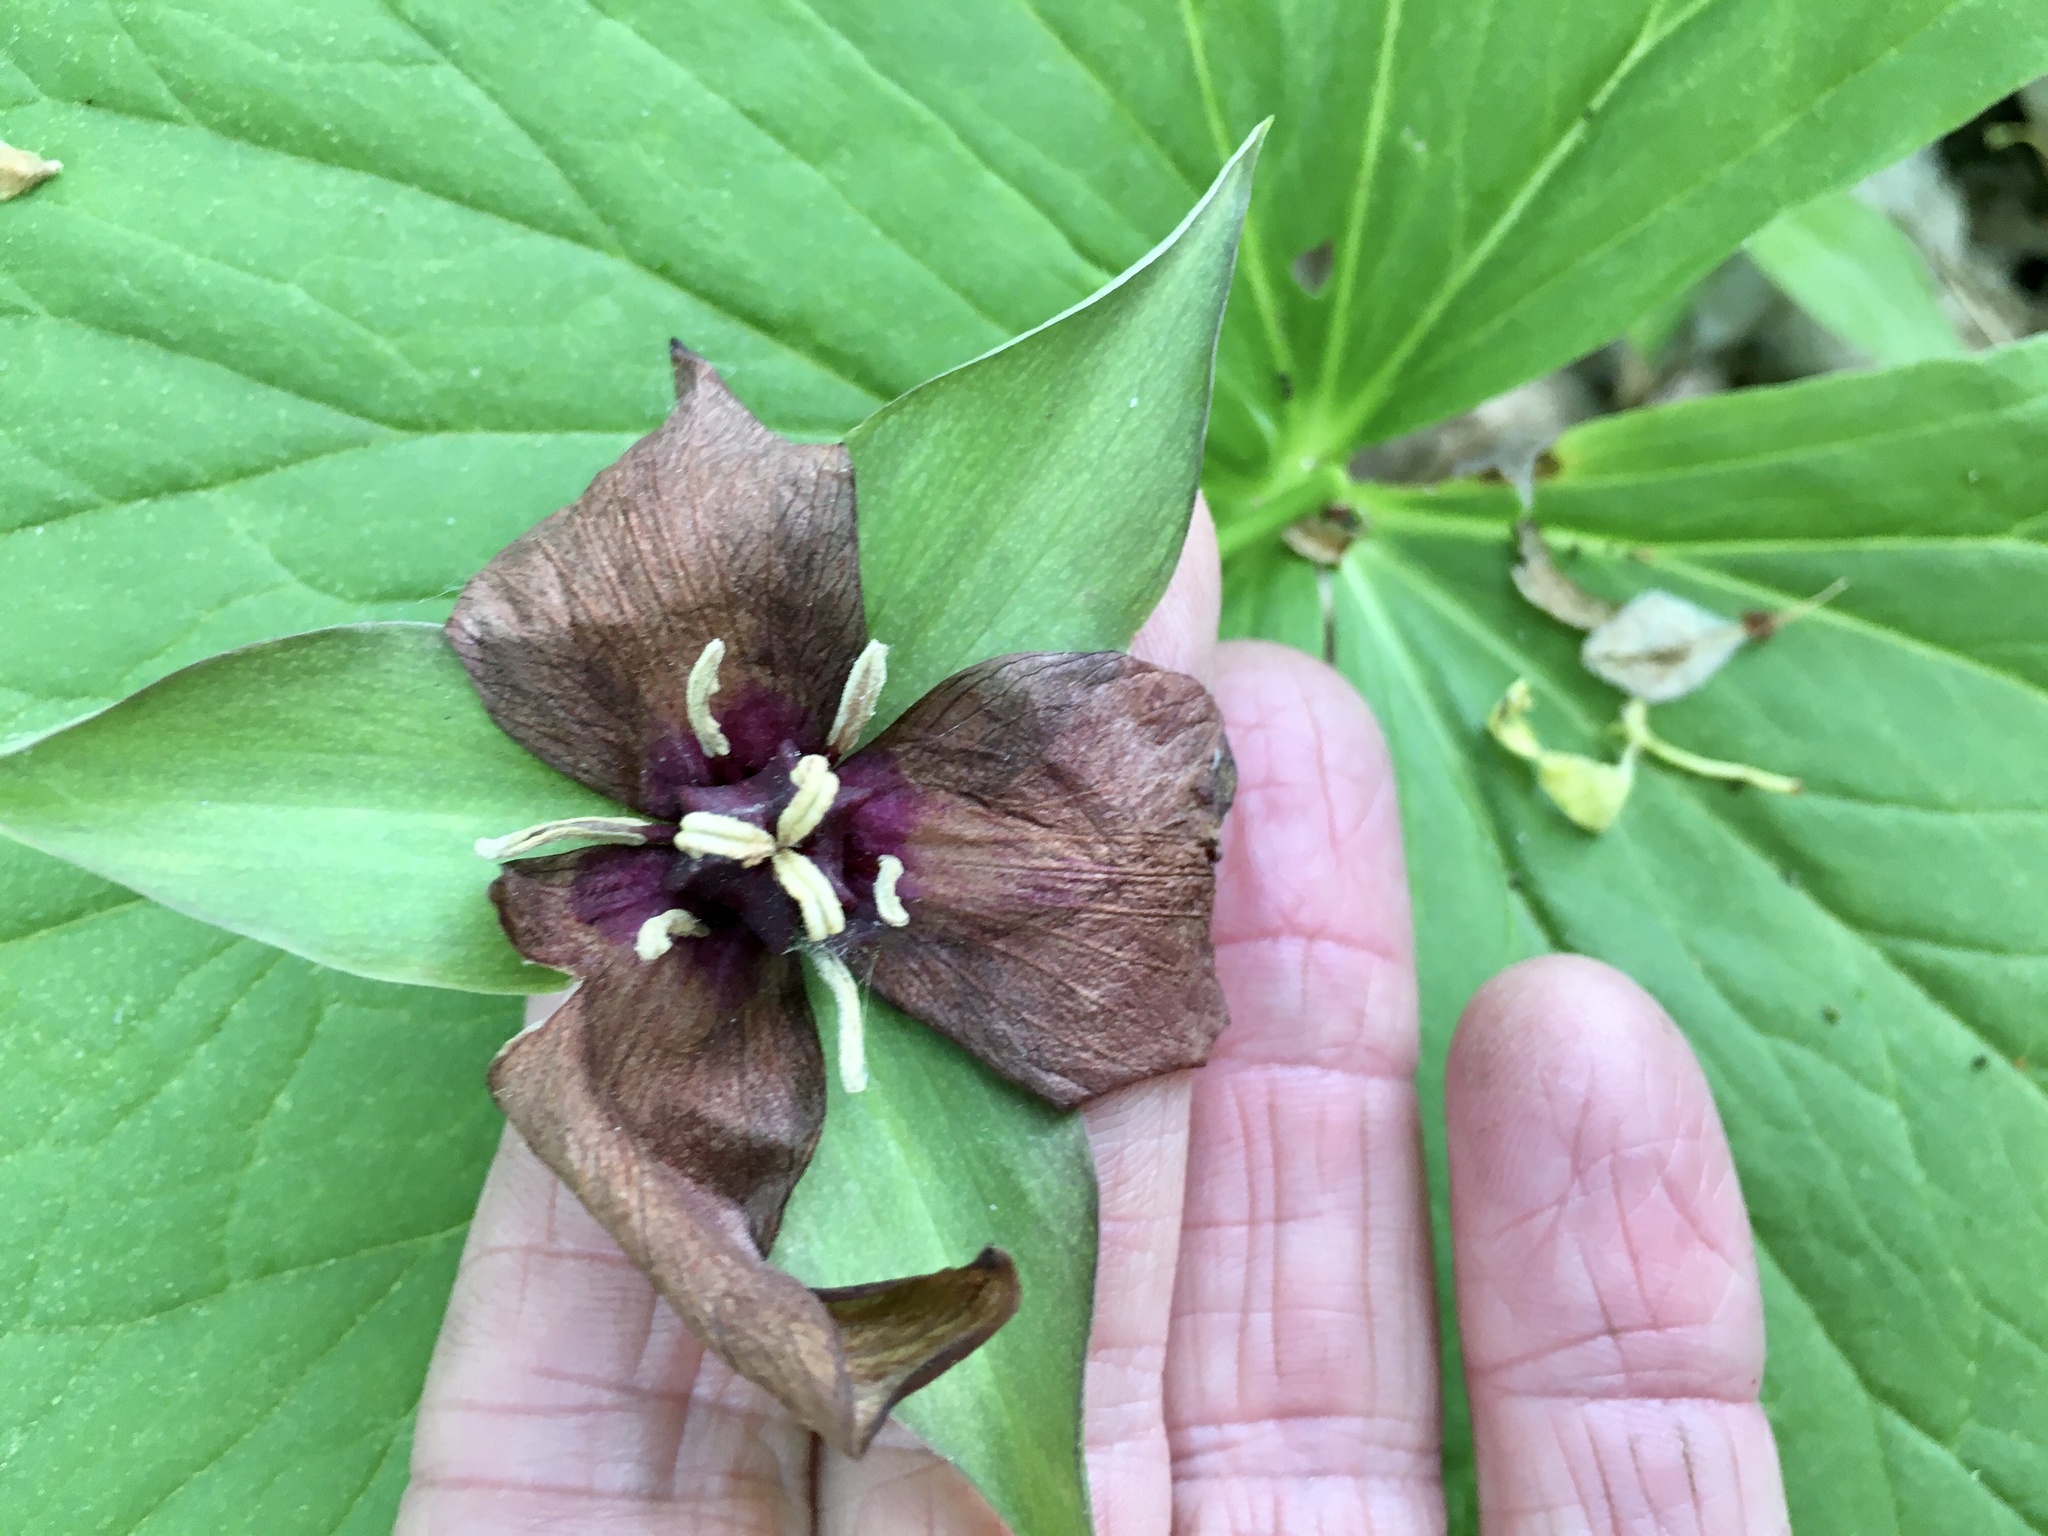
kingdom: Plantae
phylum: Tracheophyta
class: Liliopsida
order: Liliales
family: Melanthiaceae
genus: Trillium
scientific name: Trillium erectum
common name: Purple trillium
